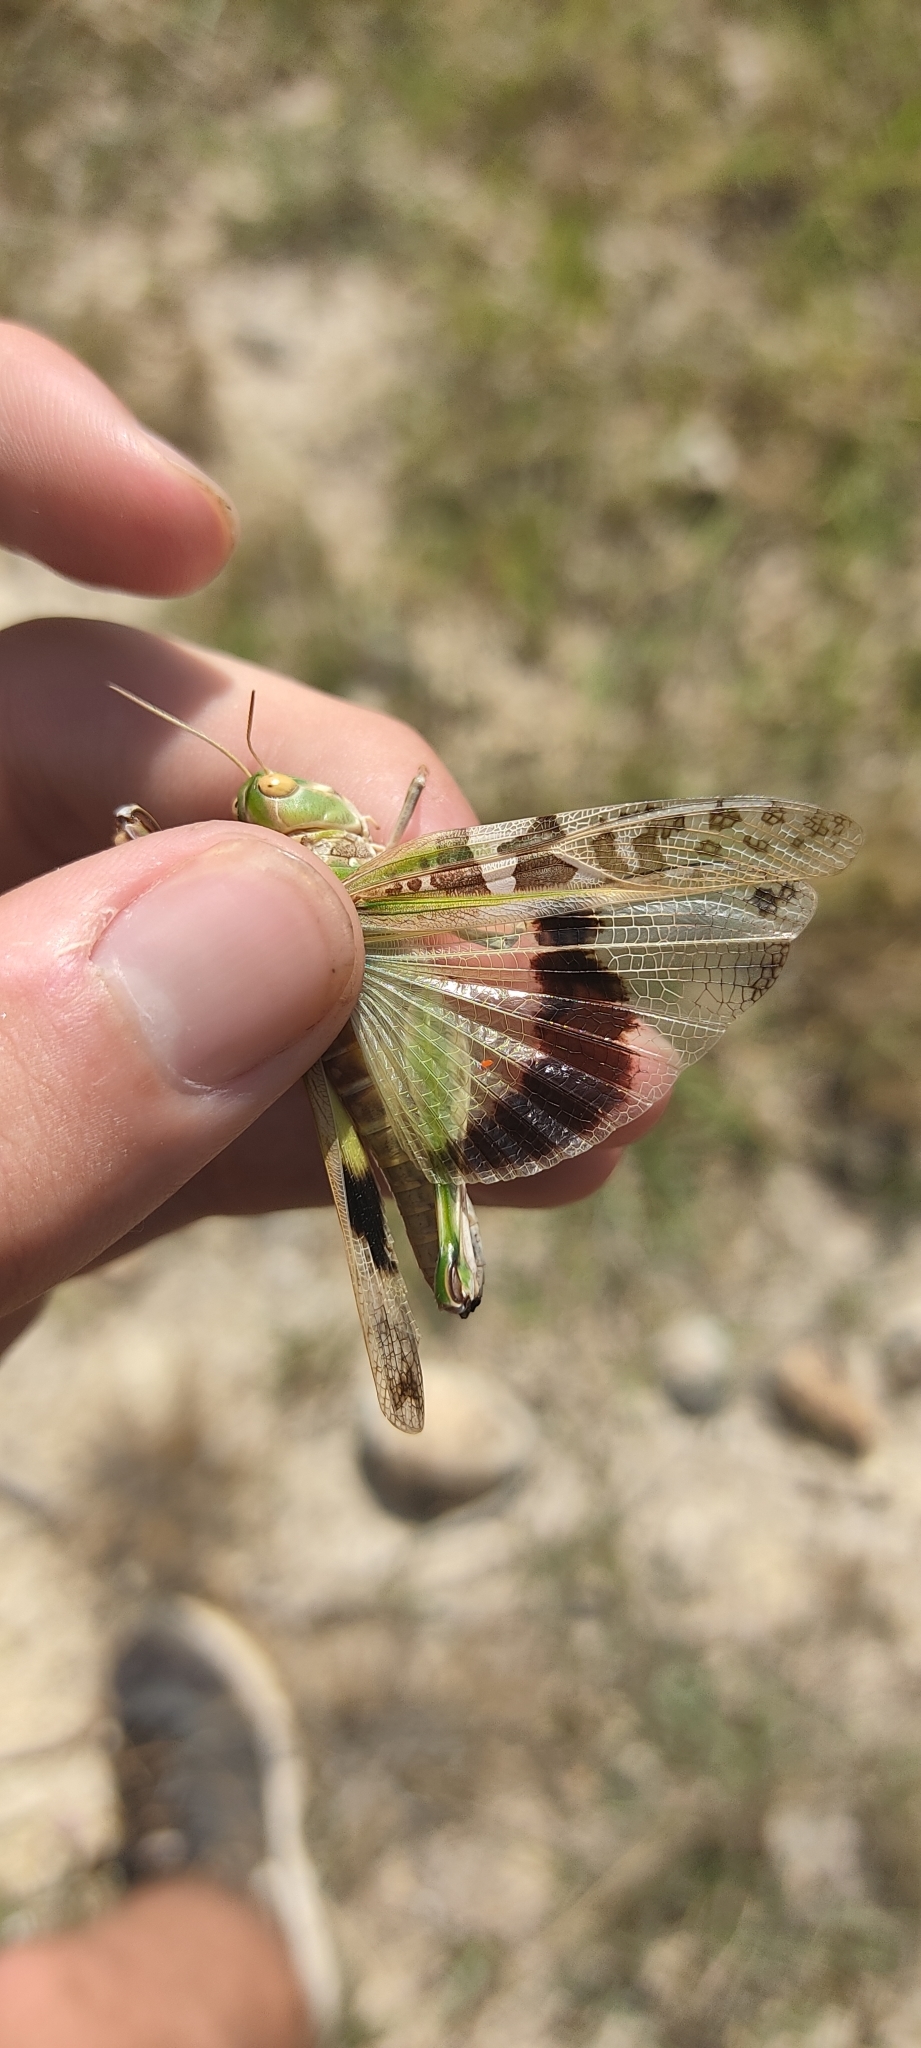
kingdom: Animalia
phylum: Arthropoda
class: Insecta
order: Orthoptera
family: Acrididae
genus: Oedaleus
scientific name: Oedaleus decorus
